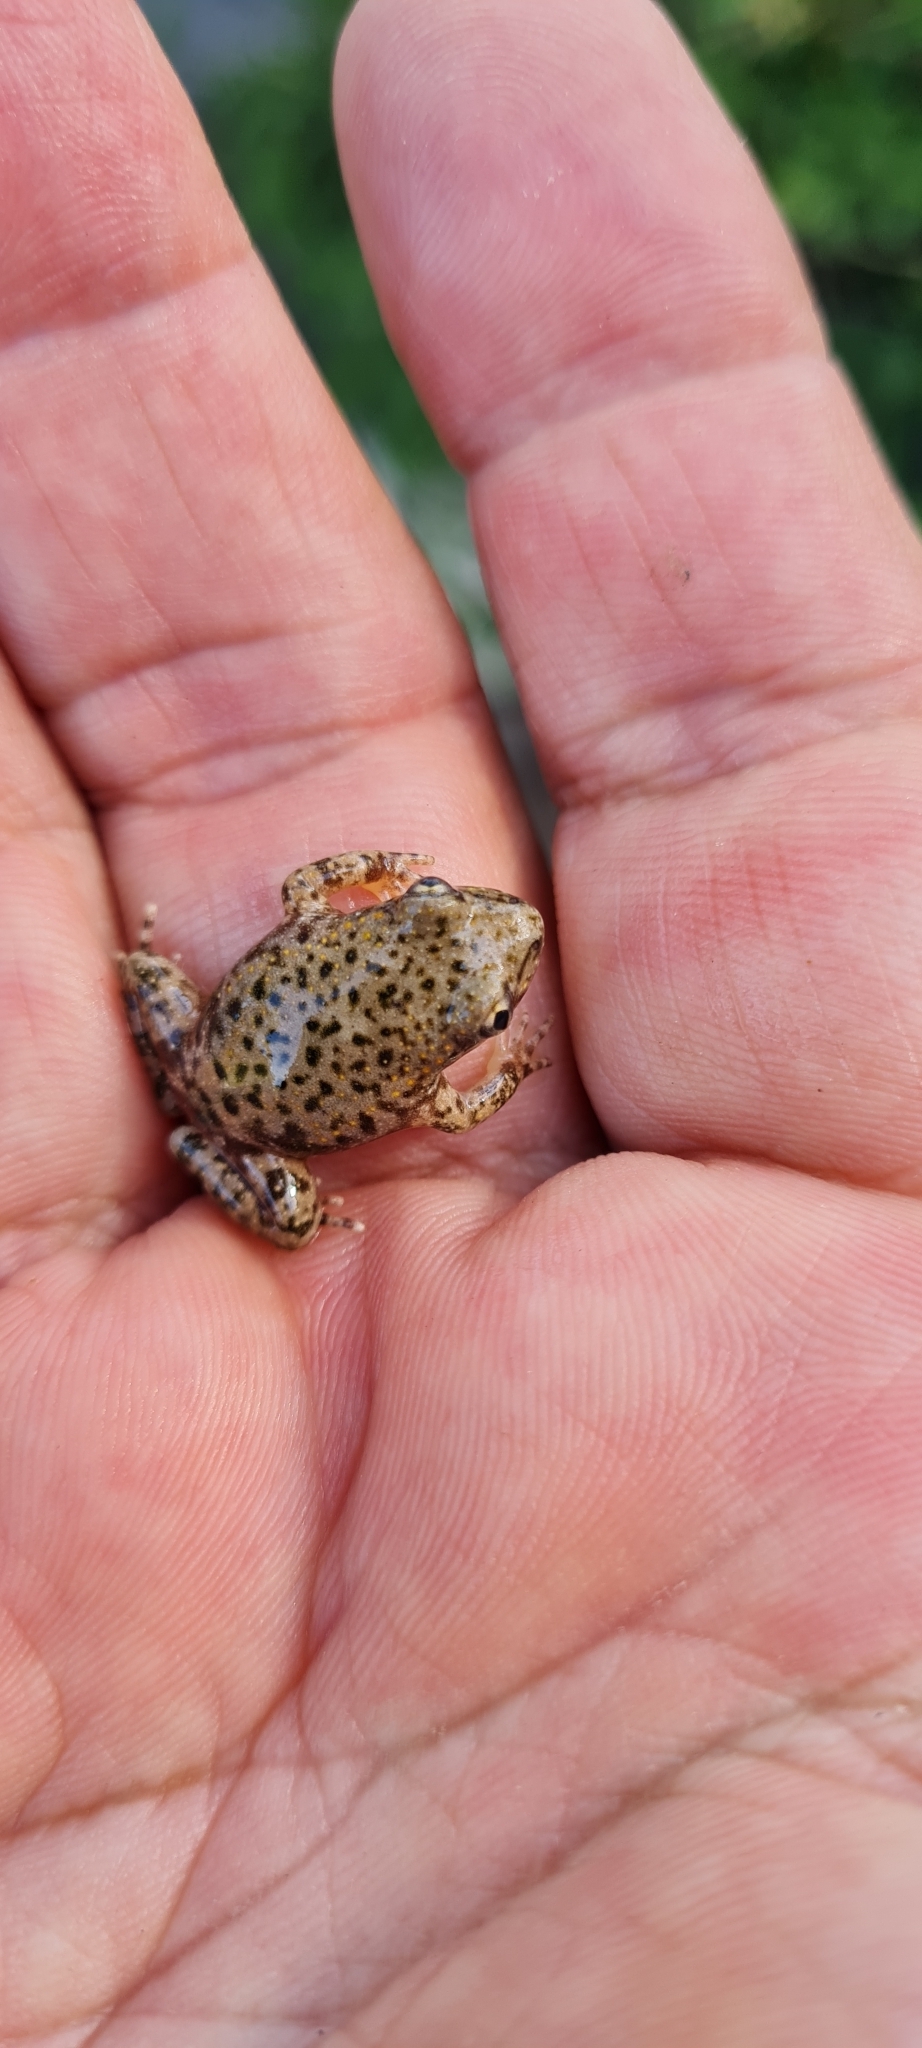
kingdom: Animalia
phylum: Chordata
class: Amphibia
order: Anura
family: Alytidae
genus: Alytes
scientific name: Alytes obstetricans
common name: Midwife toad
